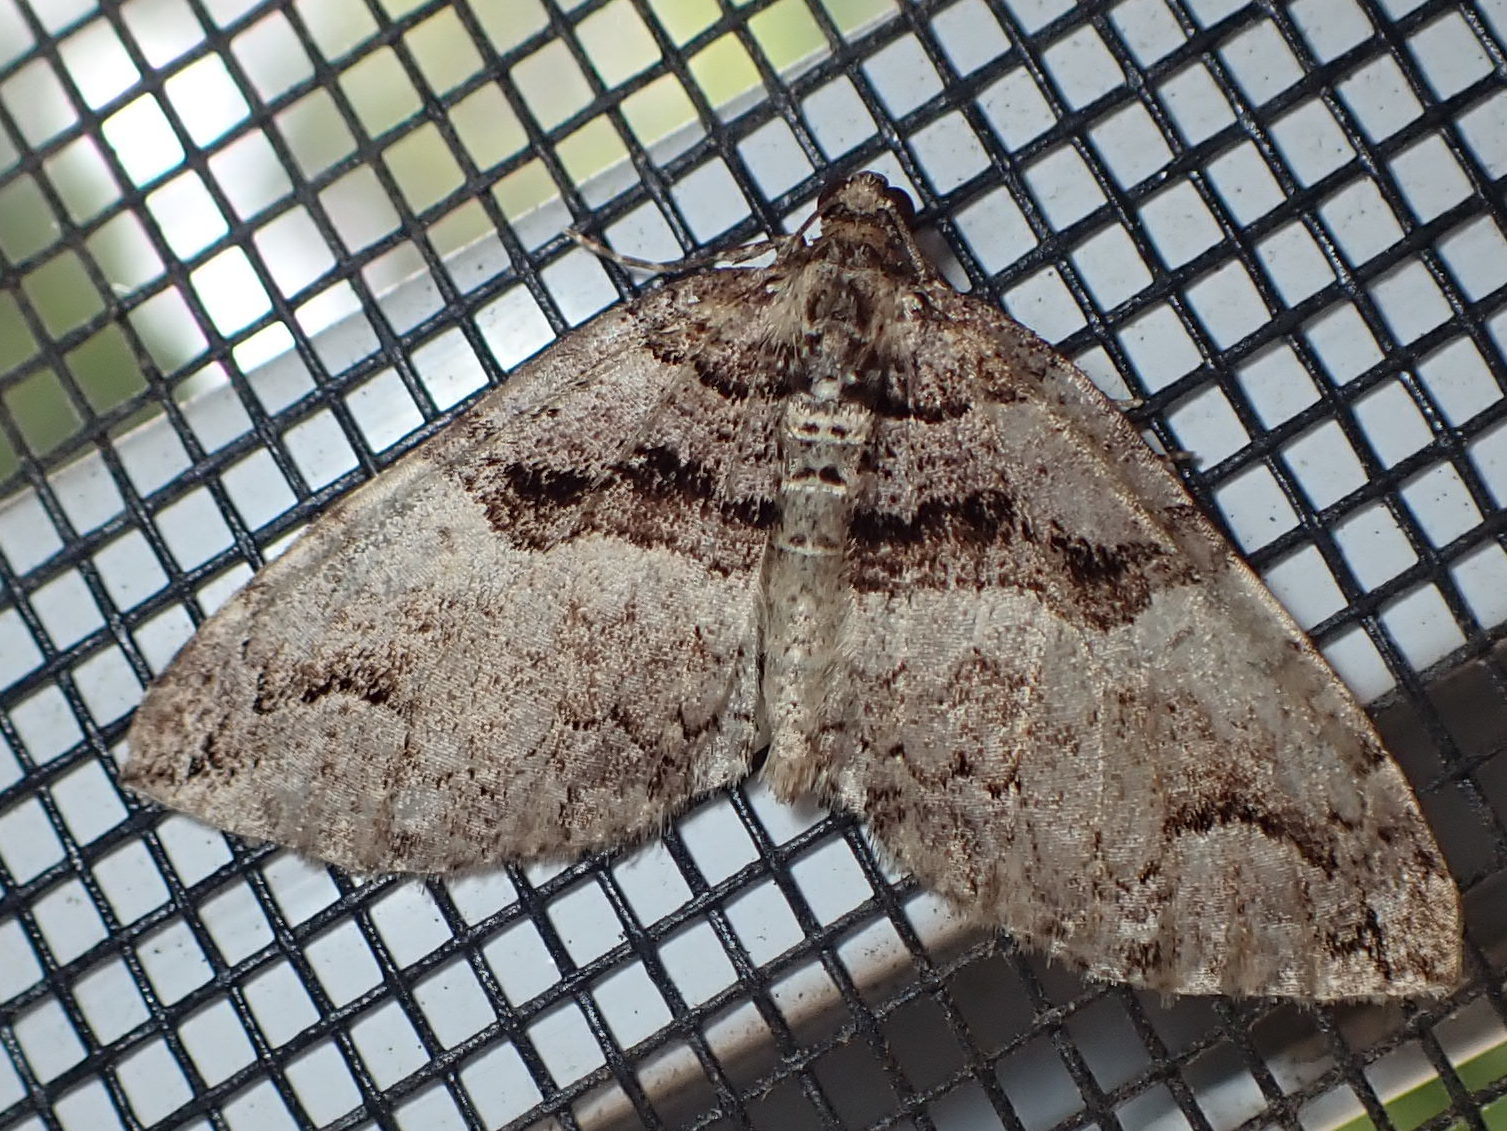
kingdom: Animalia
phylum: Arthropoda
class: Insecta
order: Lepidoptera
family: Geometridae
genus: Anticlea
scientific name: Anticlea vasiliata
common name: Variable carpet
